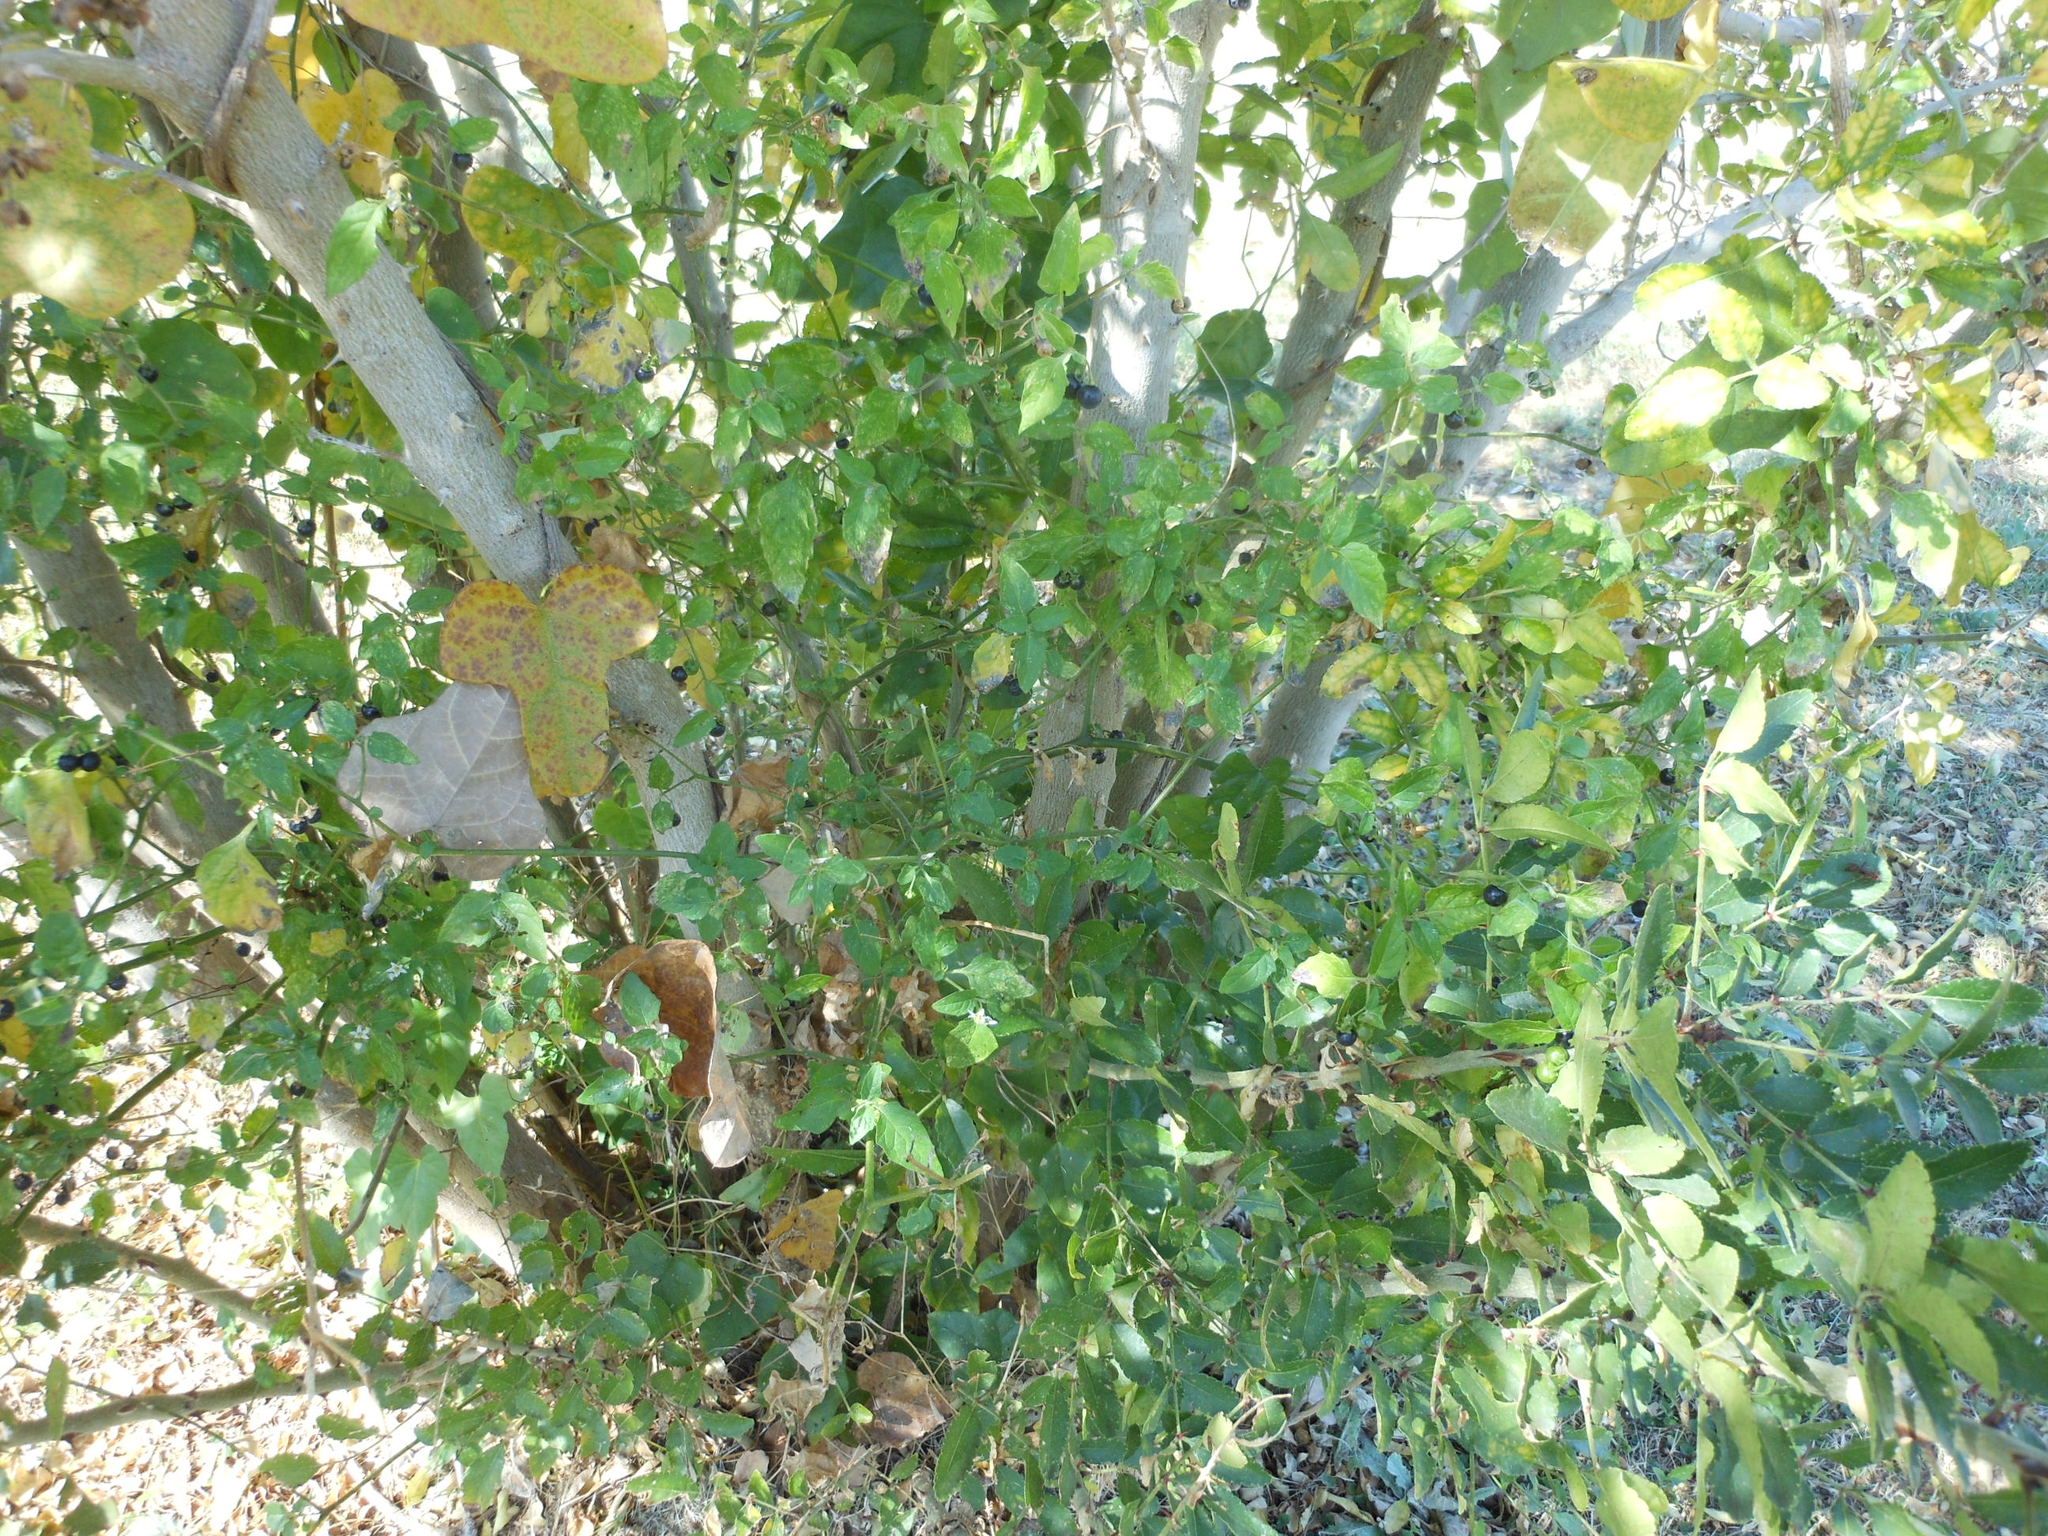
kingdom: Plantae
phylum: Tracheophyta
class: Magnoliopsida
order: Solanales
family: Solanaceae
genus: Solanum
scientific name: Solanum emulans
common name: Eastern black nightshade
